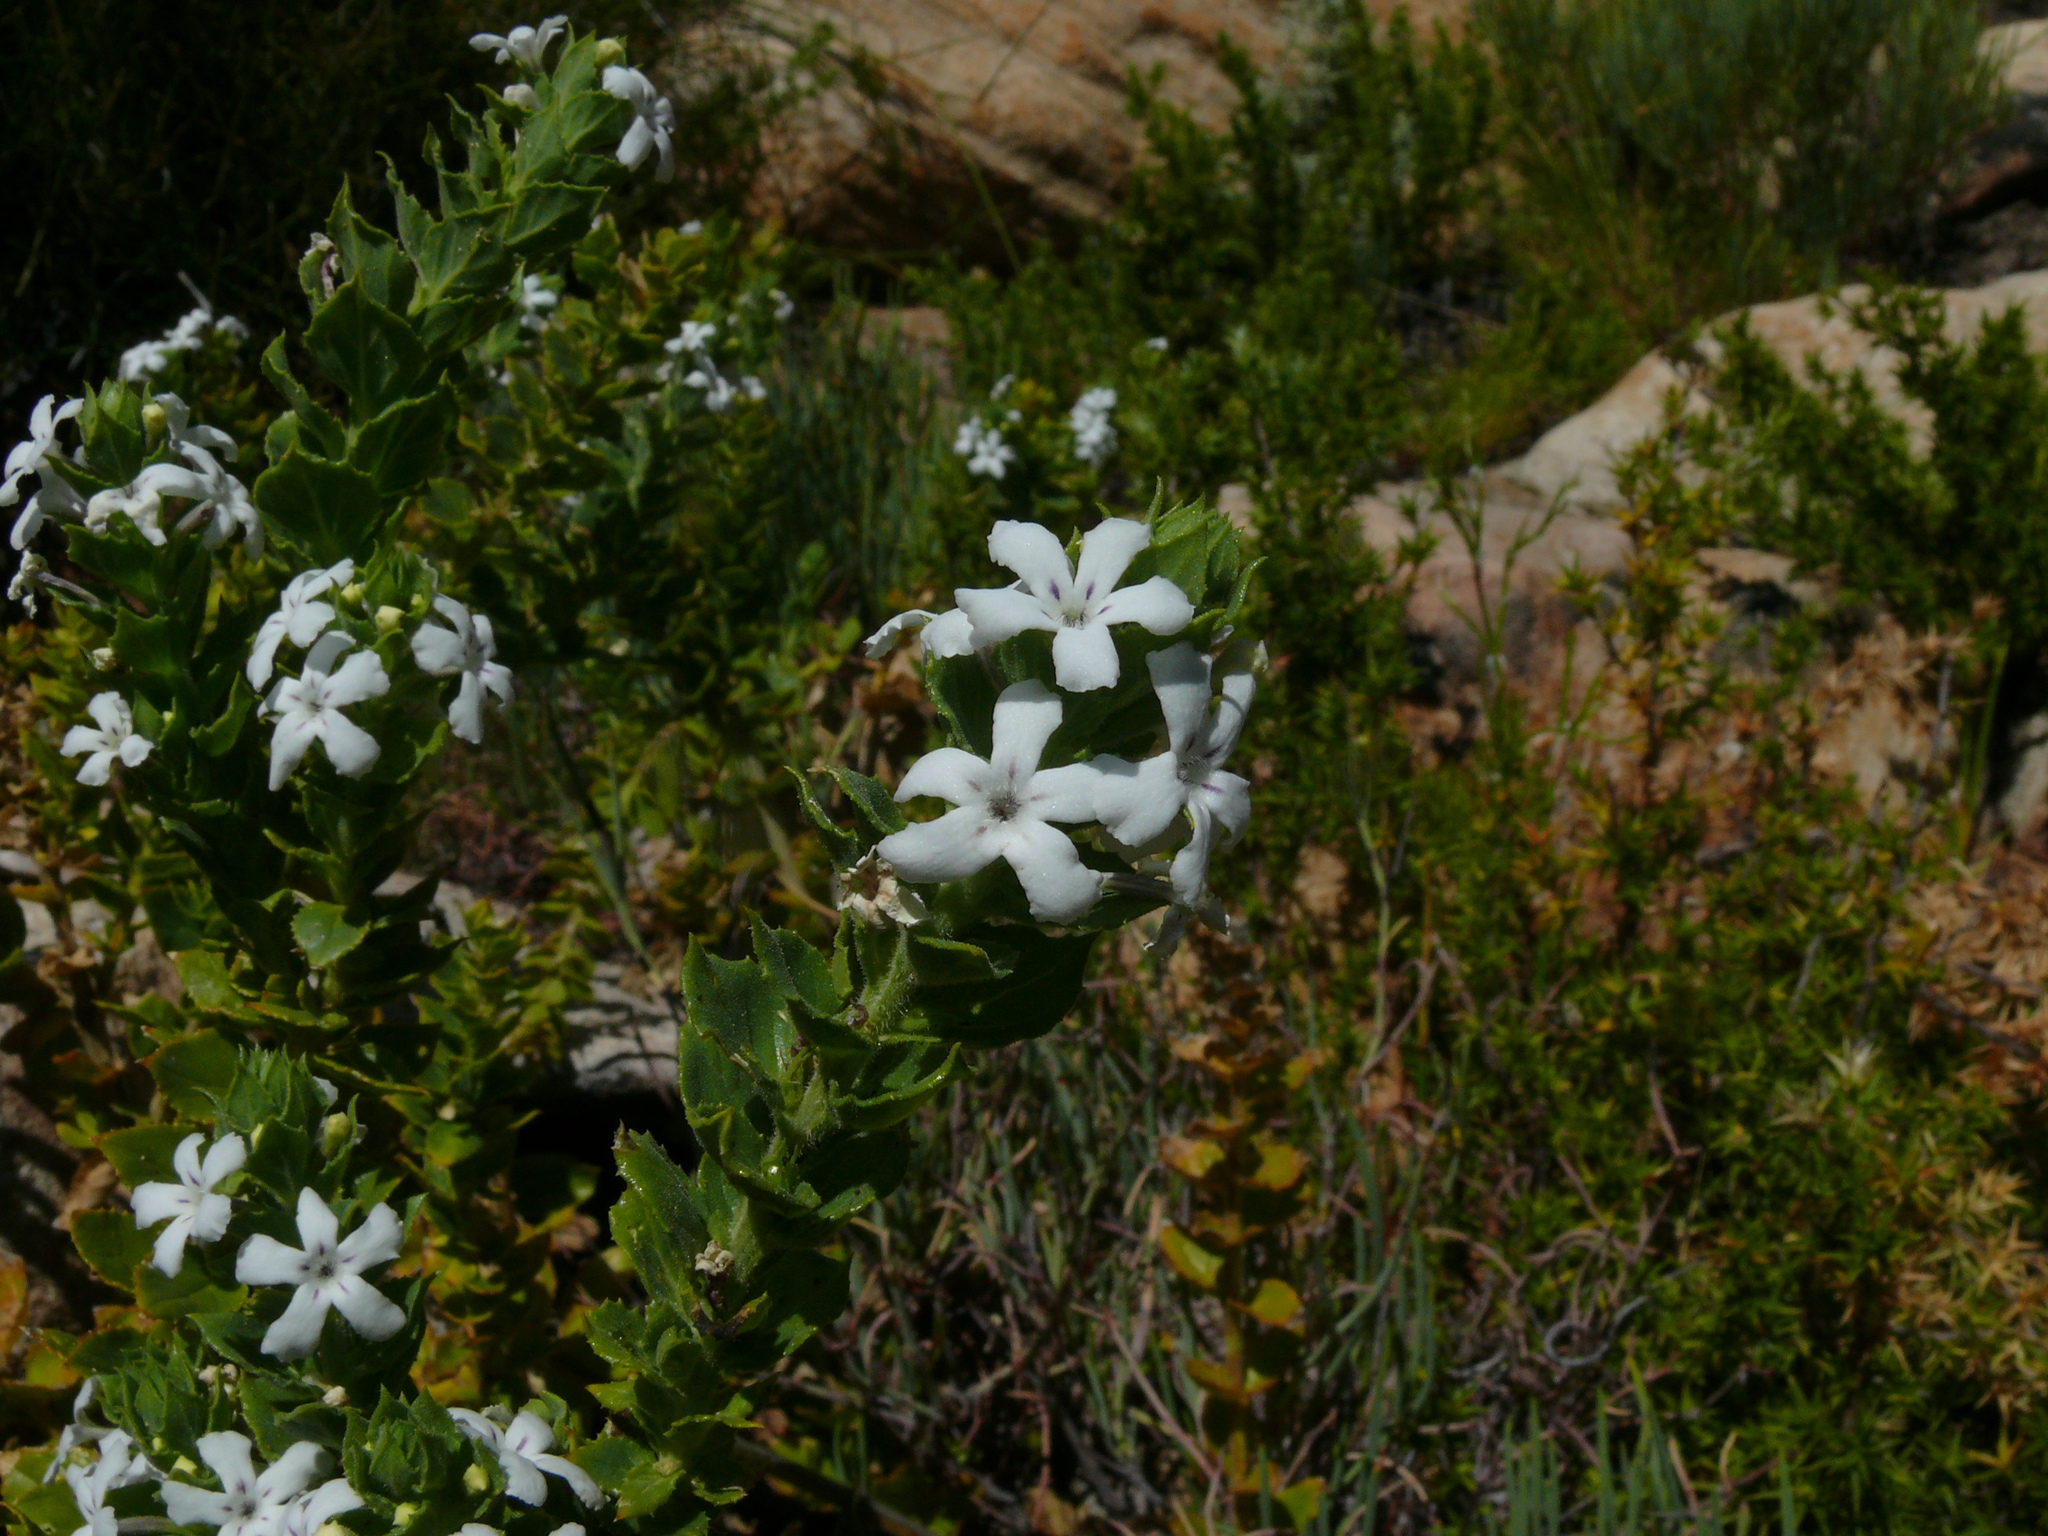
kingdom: Plantae
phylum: Tracheophyta
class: Magnoliopsida
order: Lamiales
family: Scrophulariaceae
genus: Oftia
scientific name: Oftia africana
